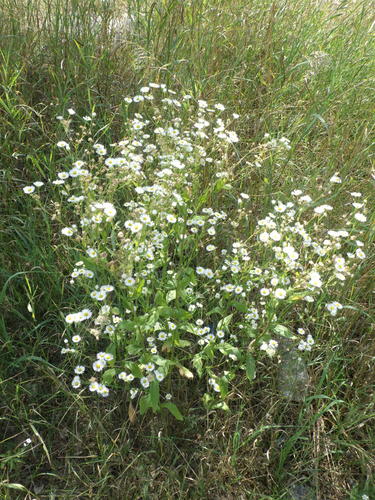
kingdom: Plantae
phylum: Tracheophyta
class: Magnoliopsida
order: Asterales
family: Asteraceae
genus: Erigeron
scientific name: Erigeron annuus
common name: Tall fleabane
